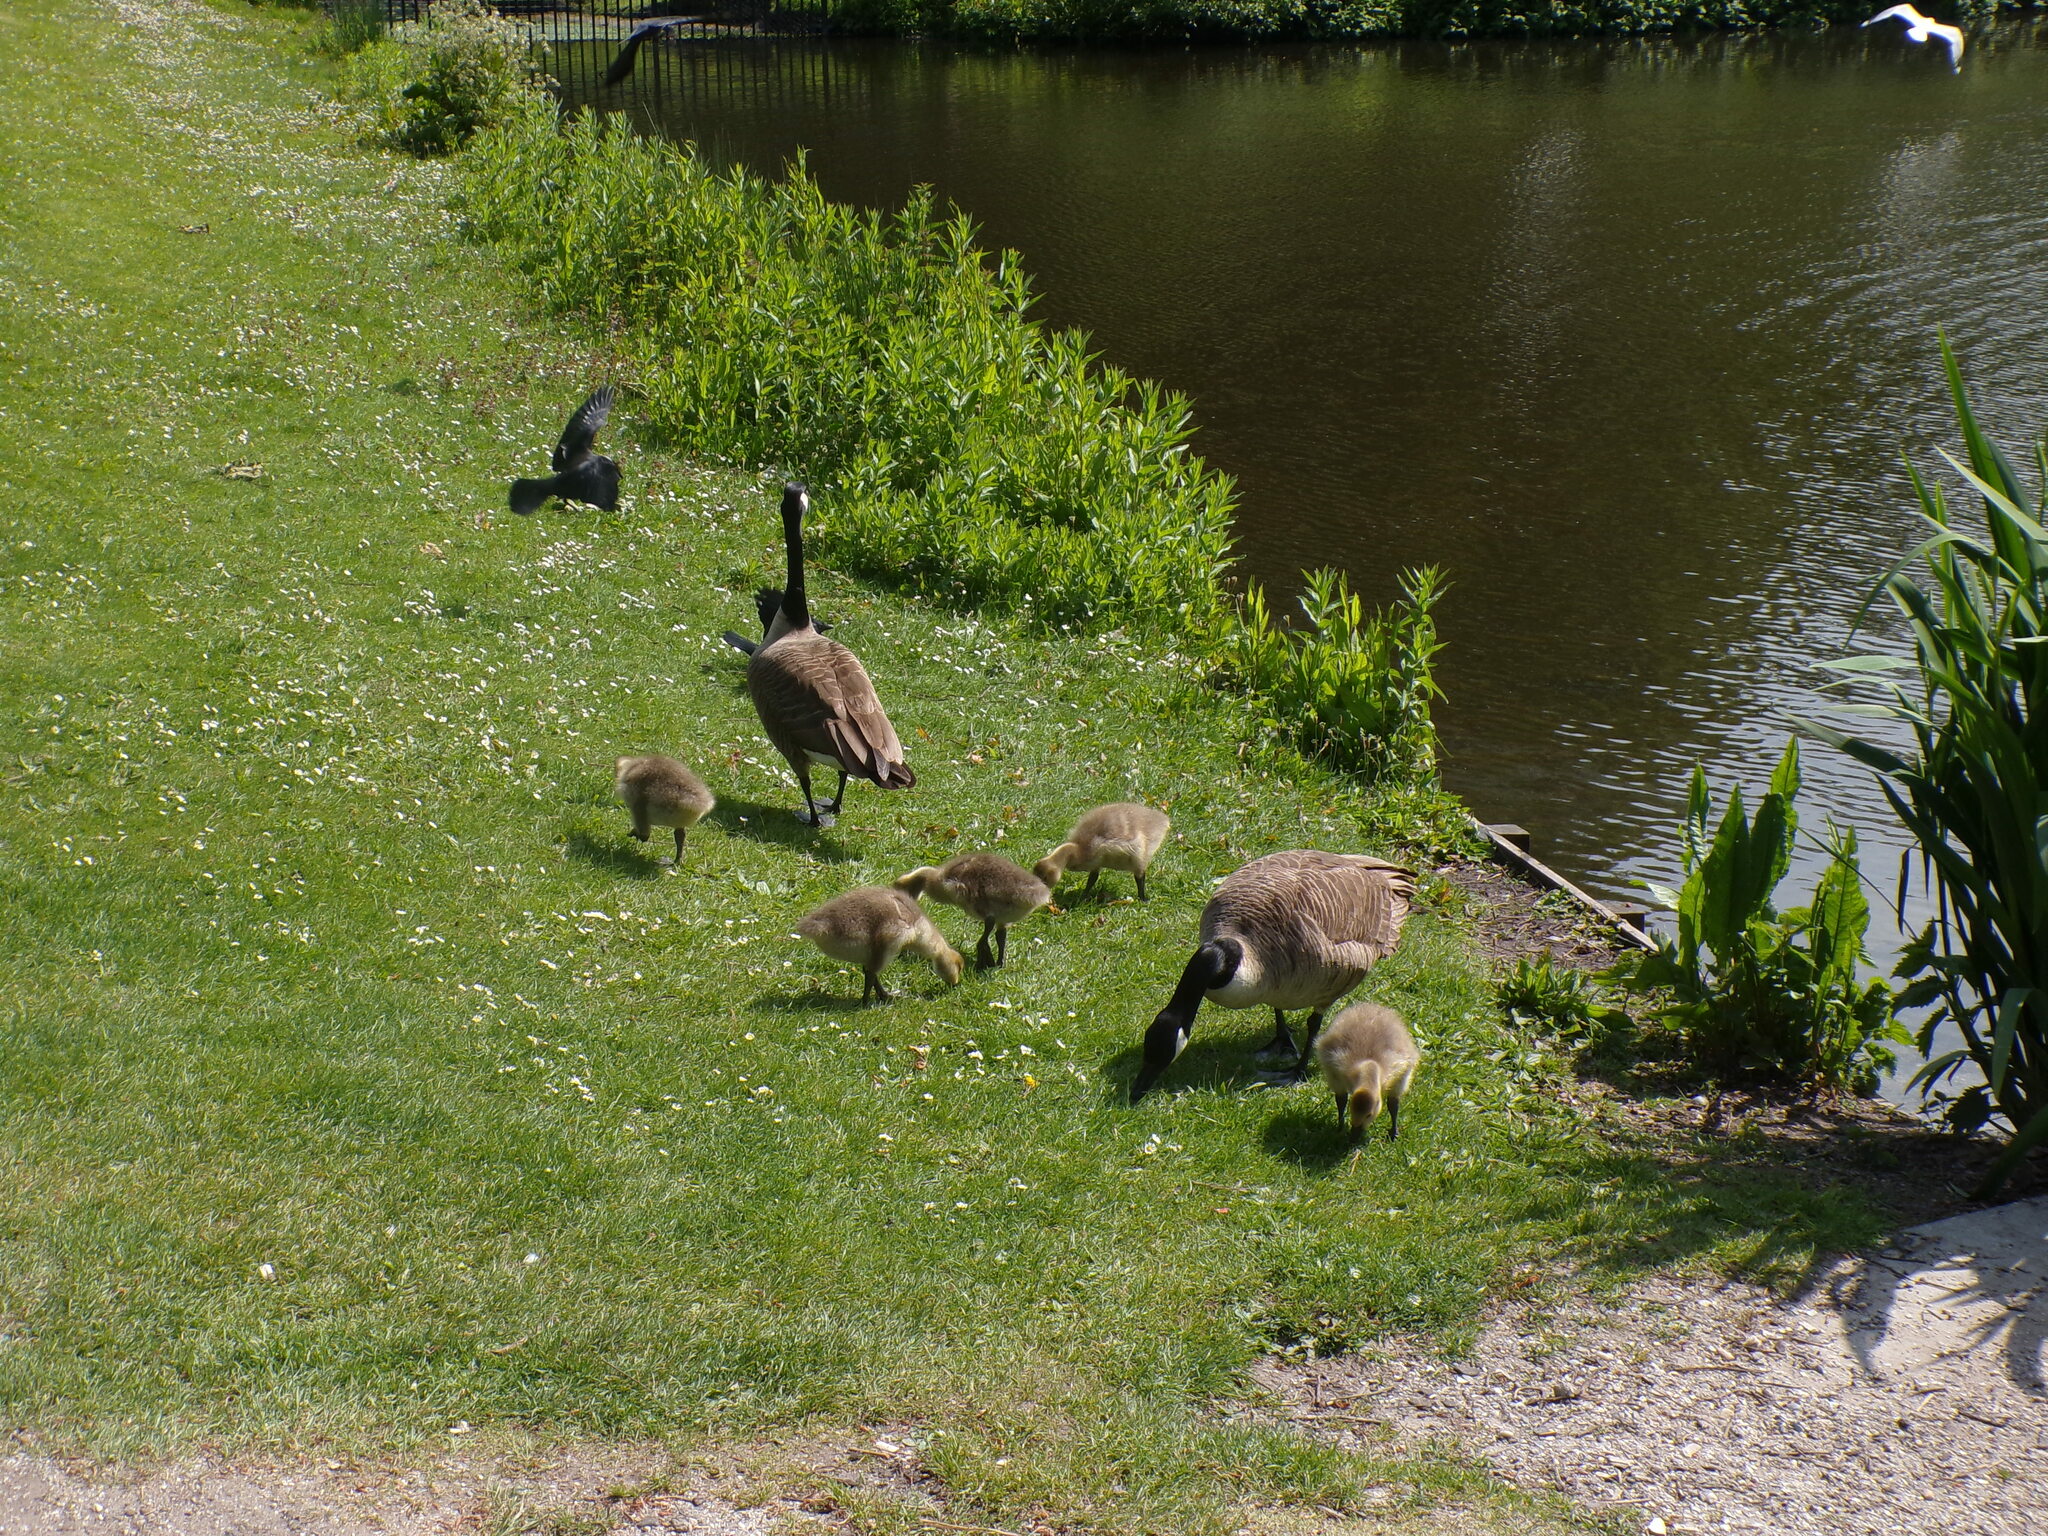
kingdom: Animalia
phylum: Chordata
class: Aves
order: Anseriformes
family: Anatidae
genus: Branta
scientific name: Branta canadensis
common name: Canada goose
